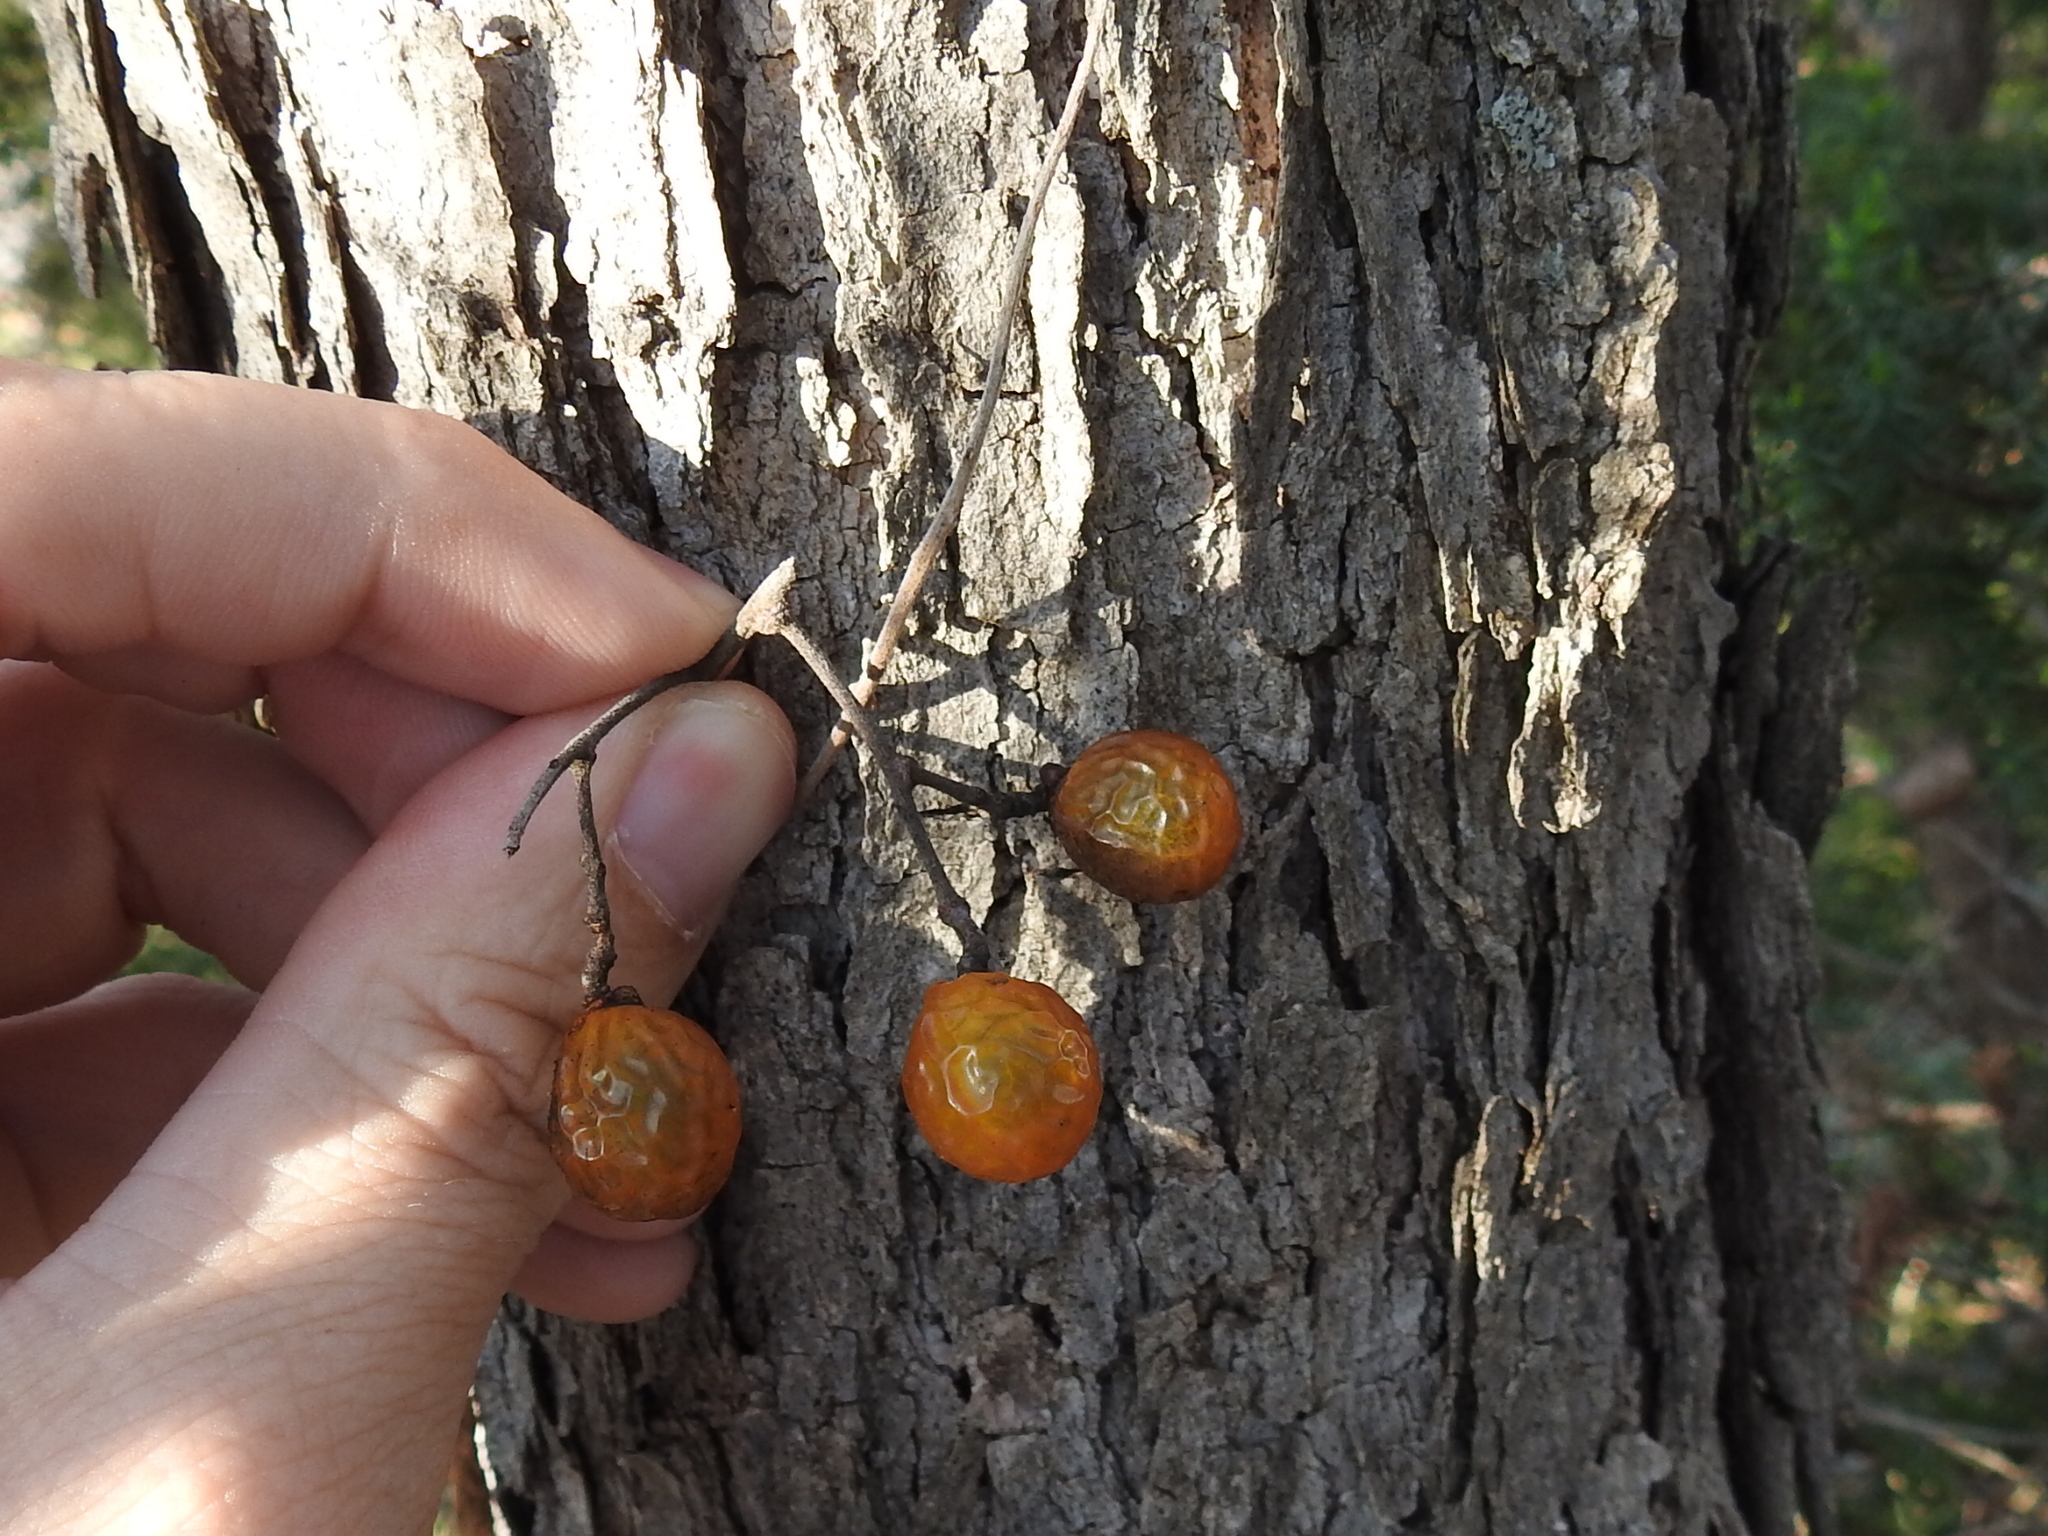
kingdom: Plantae
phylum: Tracheophyta
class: Magnoliopsida
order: Sapindales
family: Sapindaceae
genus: Sapindus
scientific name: Sapindus drummondii
